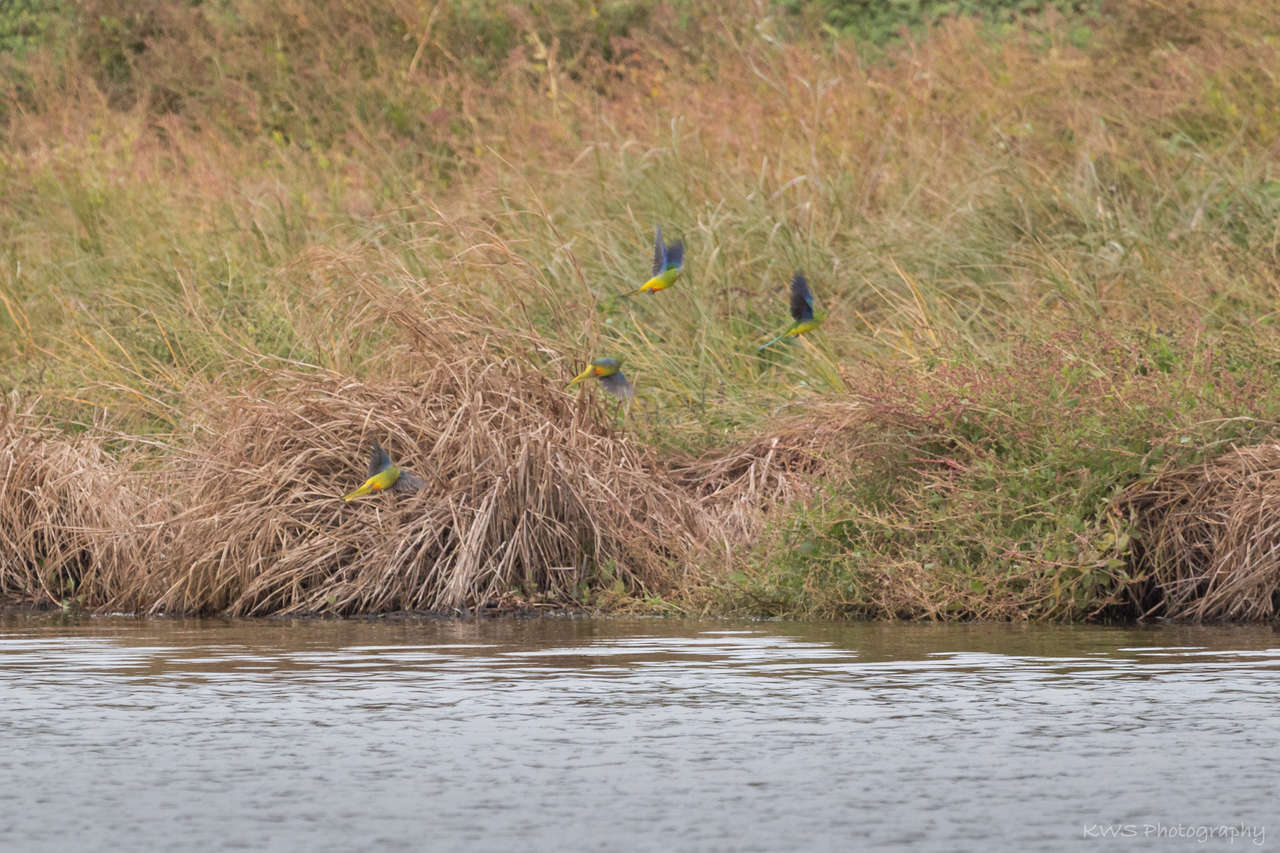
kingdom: Animalia
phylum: Chordata
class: Aves
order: Psittaciformes
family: Psittacidae
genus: Neophema
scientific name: Neophema chrysogaster
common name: Orange-bellied parrot
